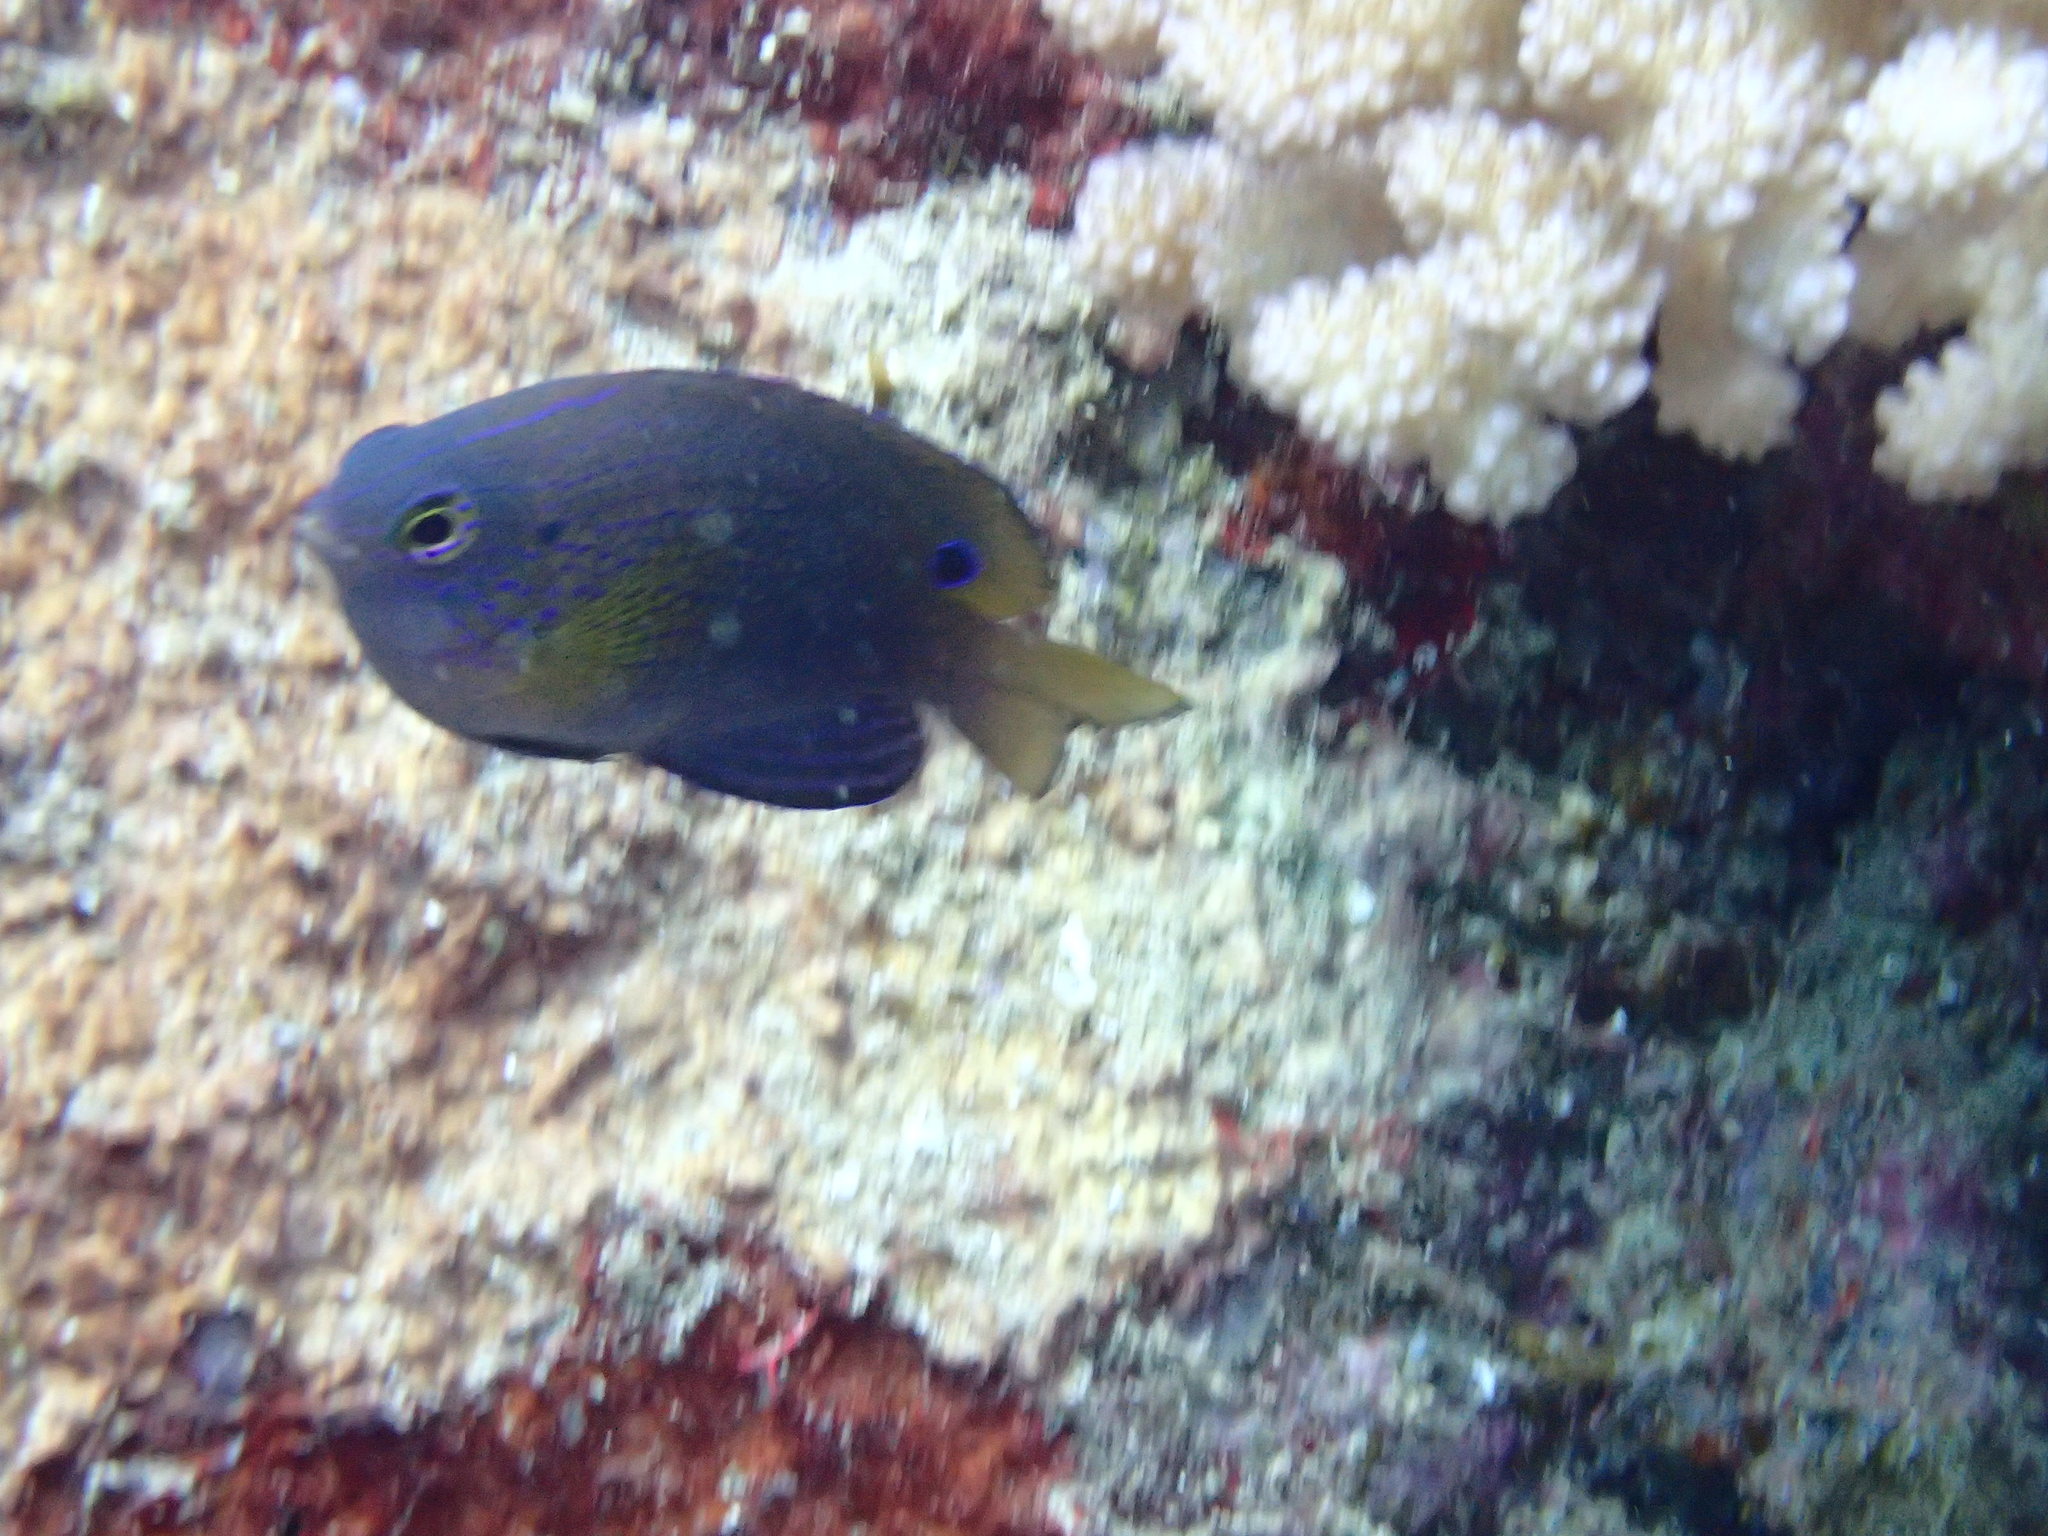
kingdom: Animalia
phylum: Chordata
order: Perciformes
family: Pomacentridae
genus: Pomacentrus
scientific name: Pomacentrus vaiuli
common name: Princess damsel
